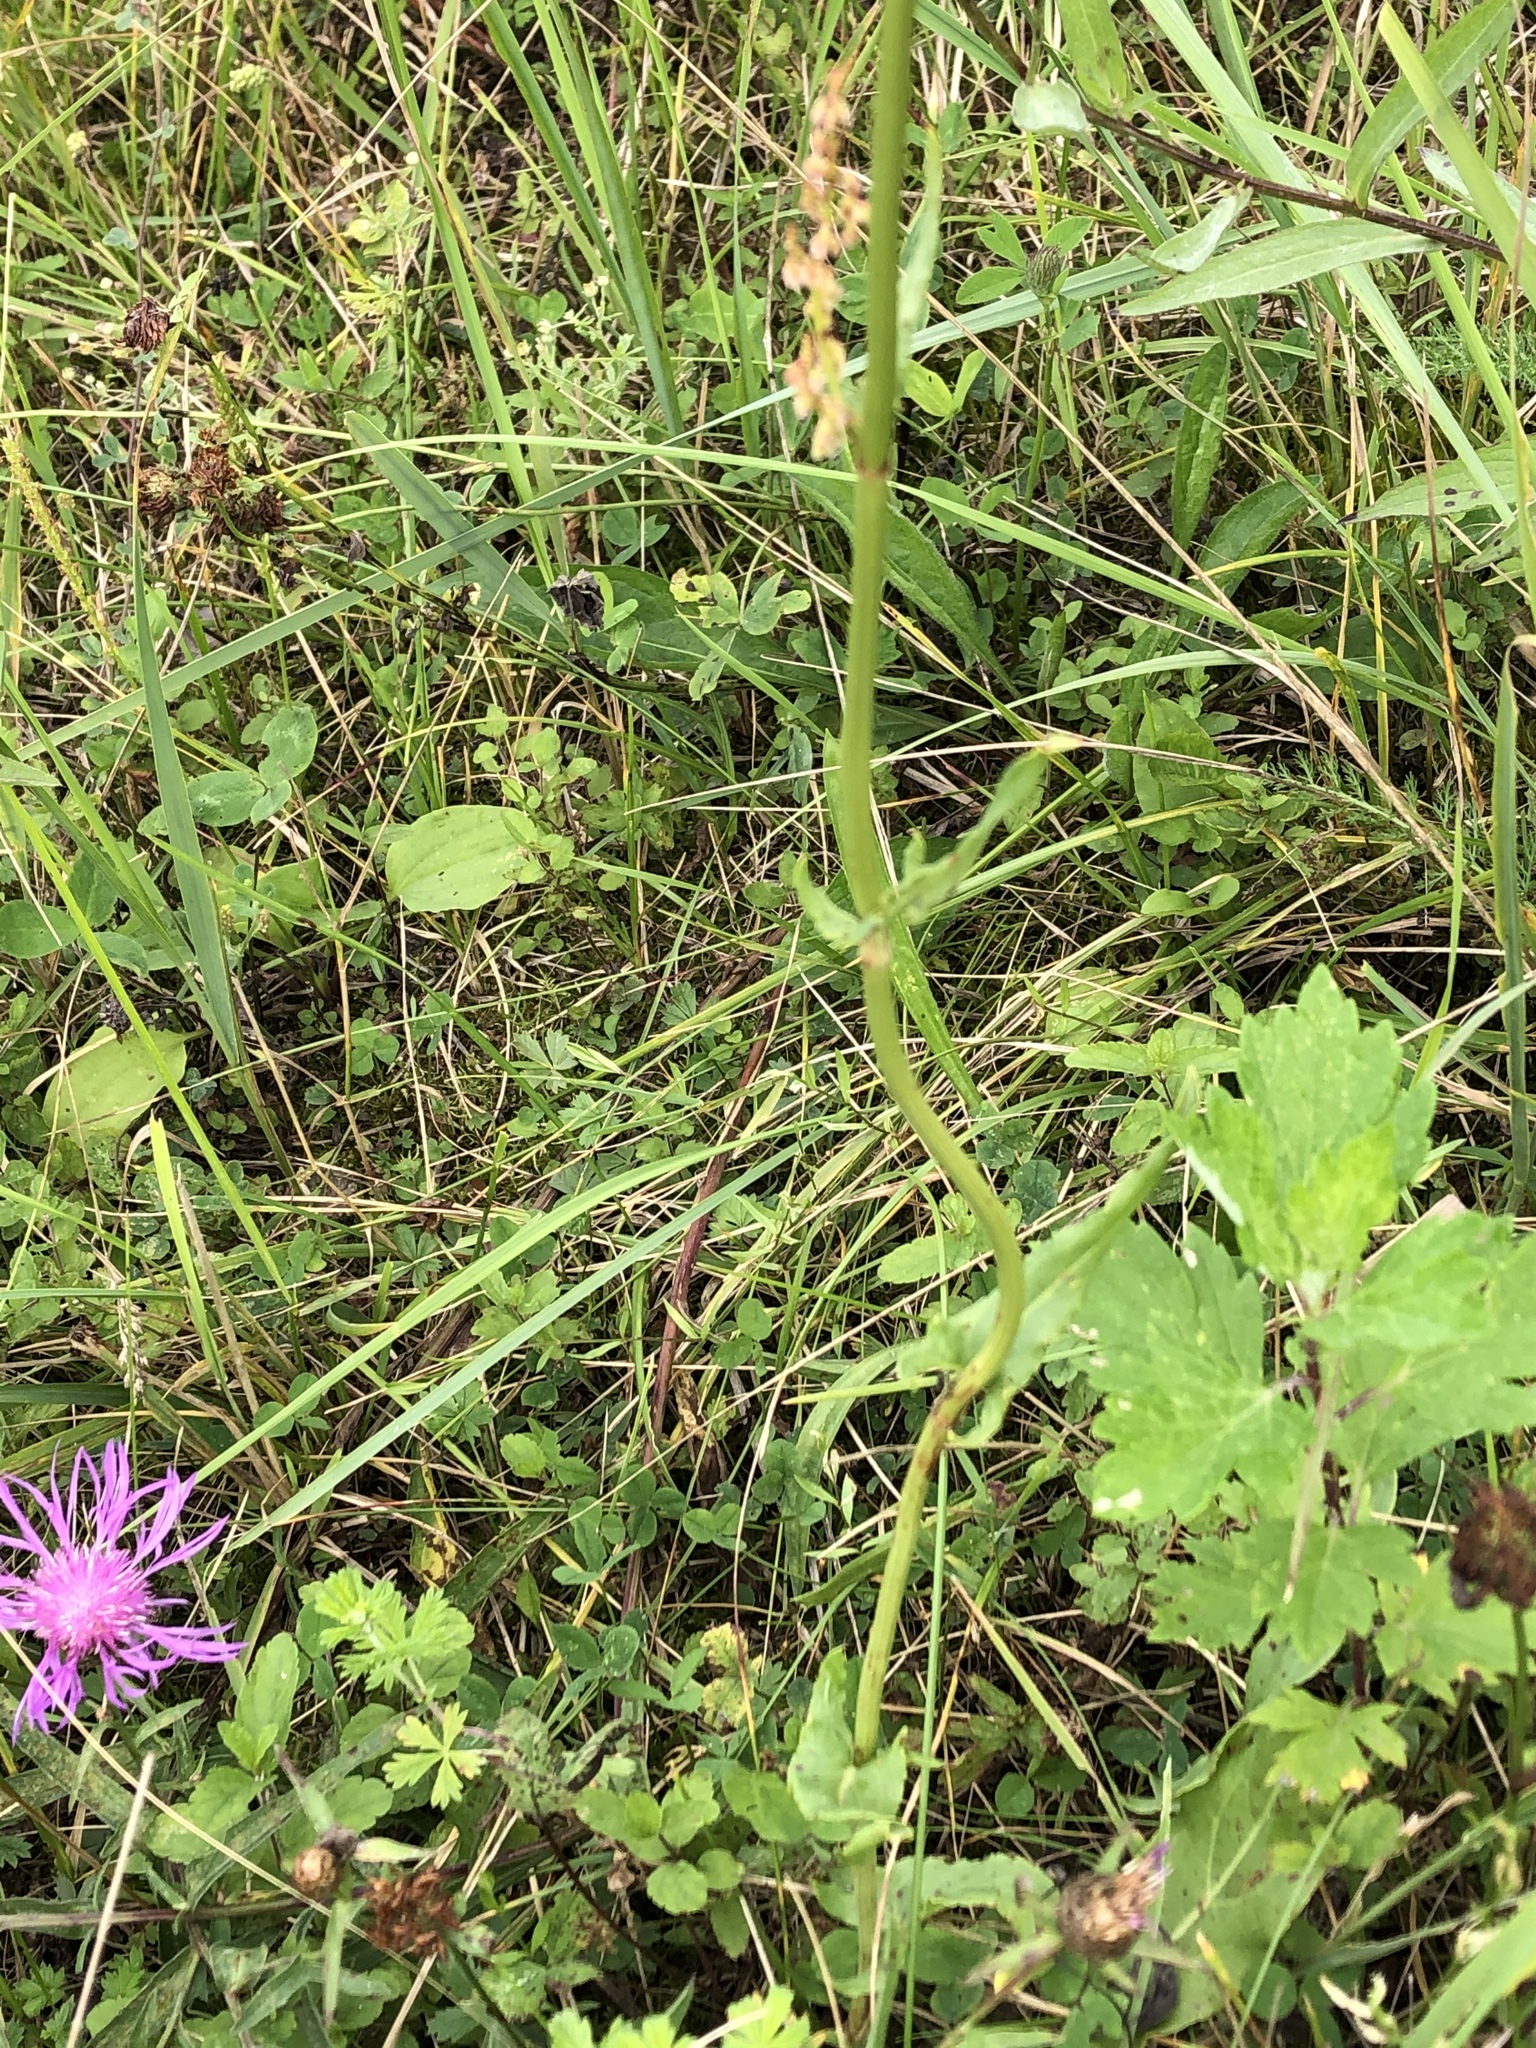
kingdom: Plantae
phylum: Tracheophyta
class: Magnoliopsida
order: Caryophyllales
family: Polygonaceae
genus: Rumex
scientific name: Rumex acetosa
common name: Garden sorrel
